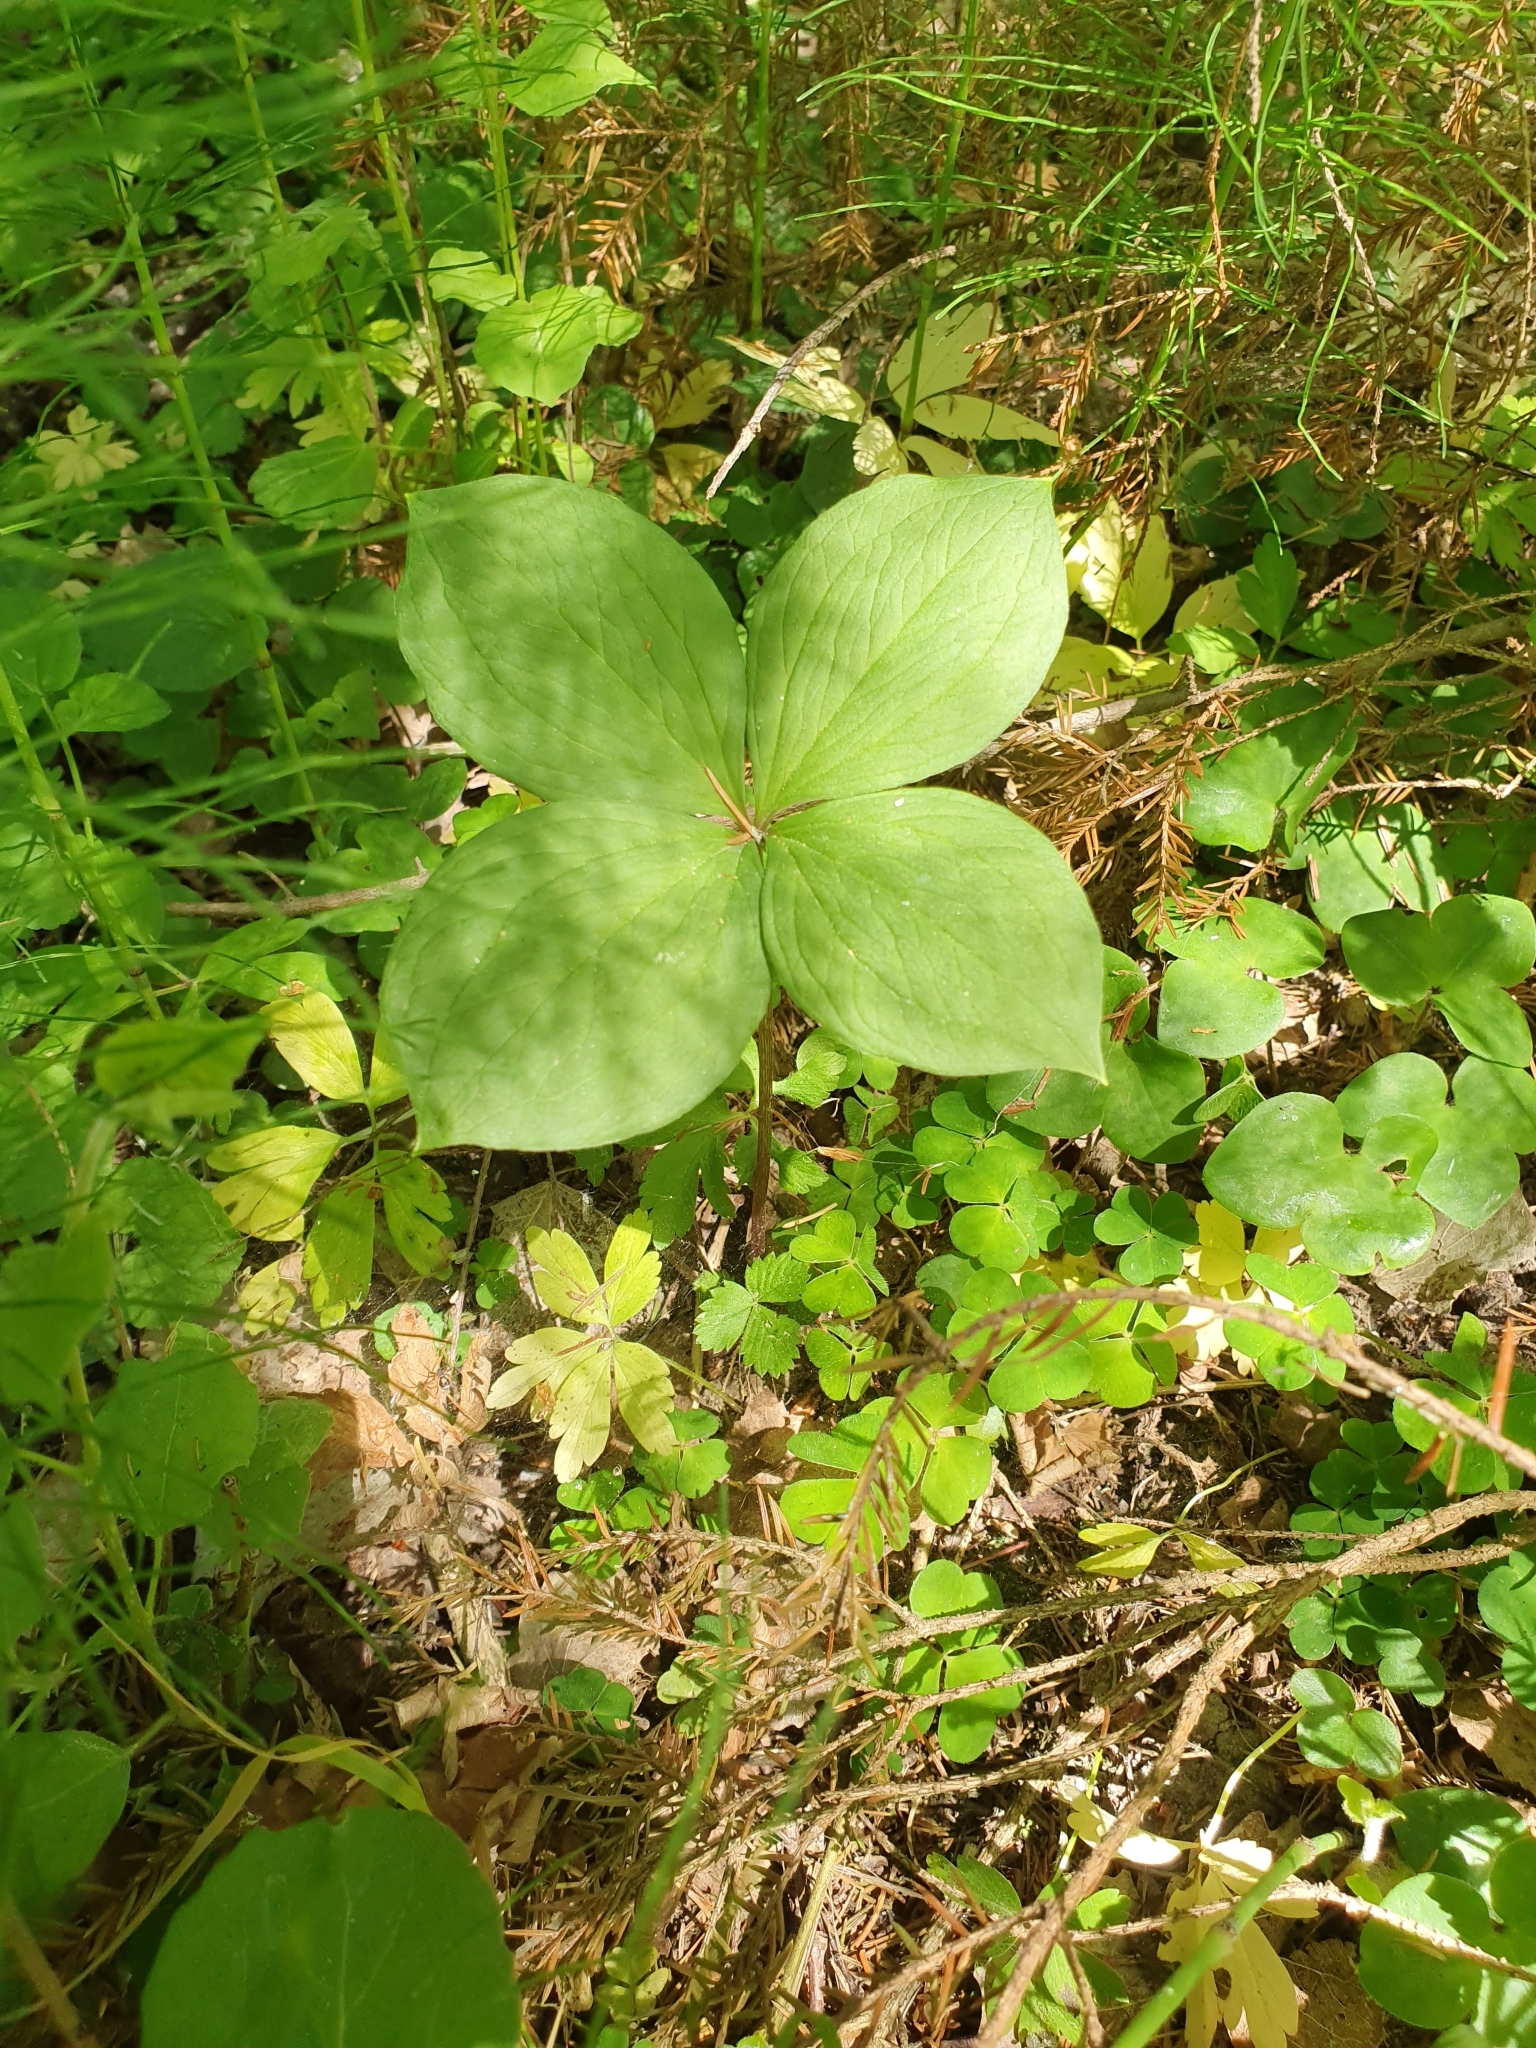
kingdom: Plantae
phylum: Tracheophyta
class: Liliopsida
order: Liliales
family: Melanthiaceae
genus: Paris
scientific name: Paris quadrifolia
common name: Herb-paris
